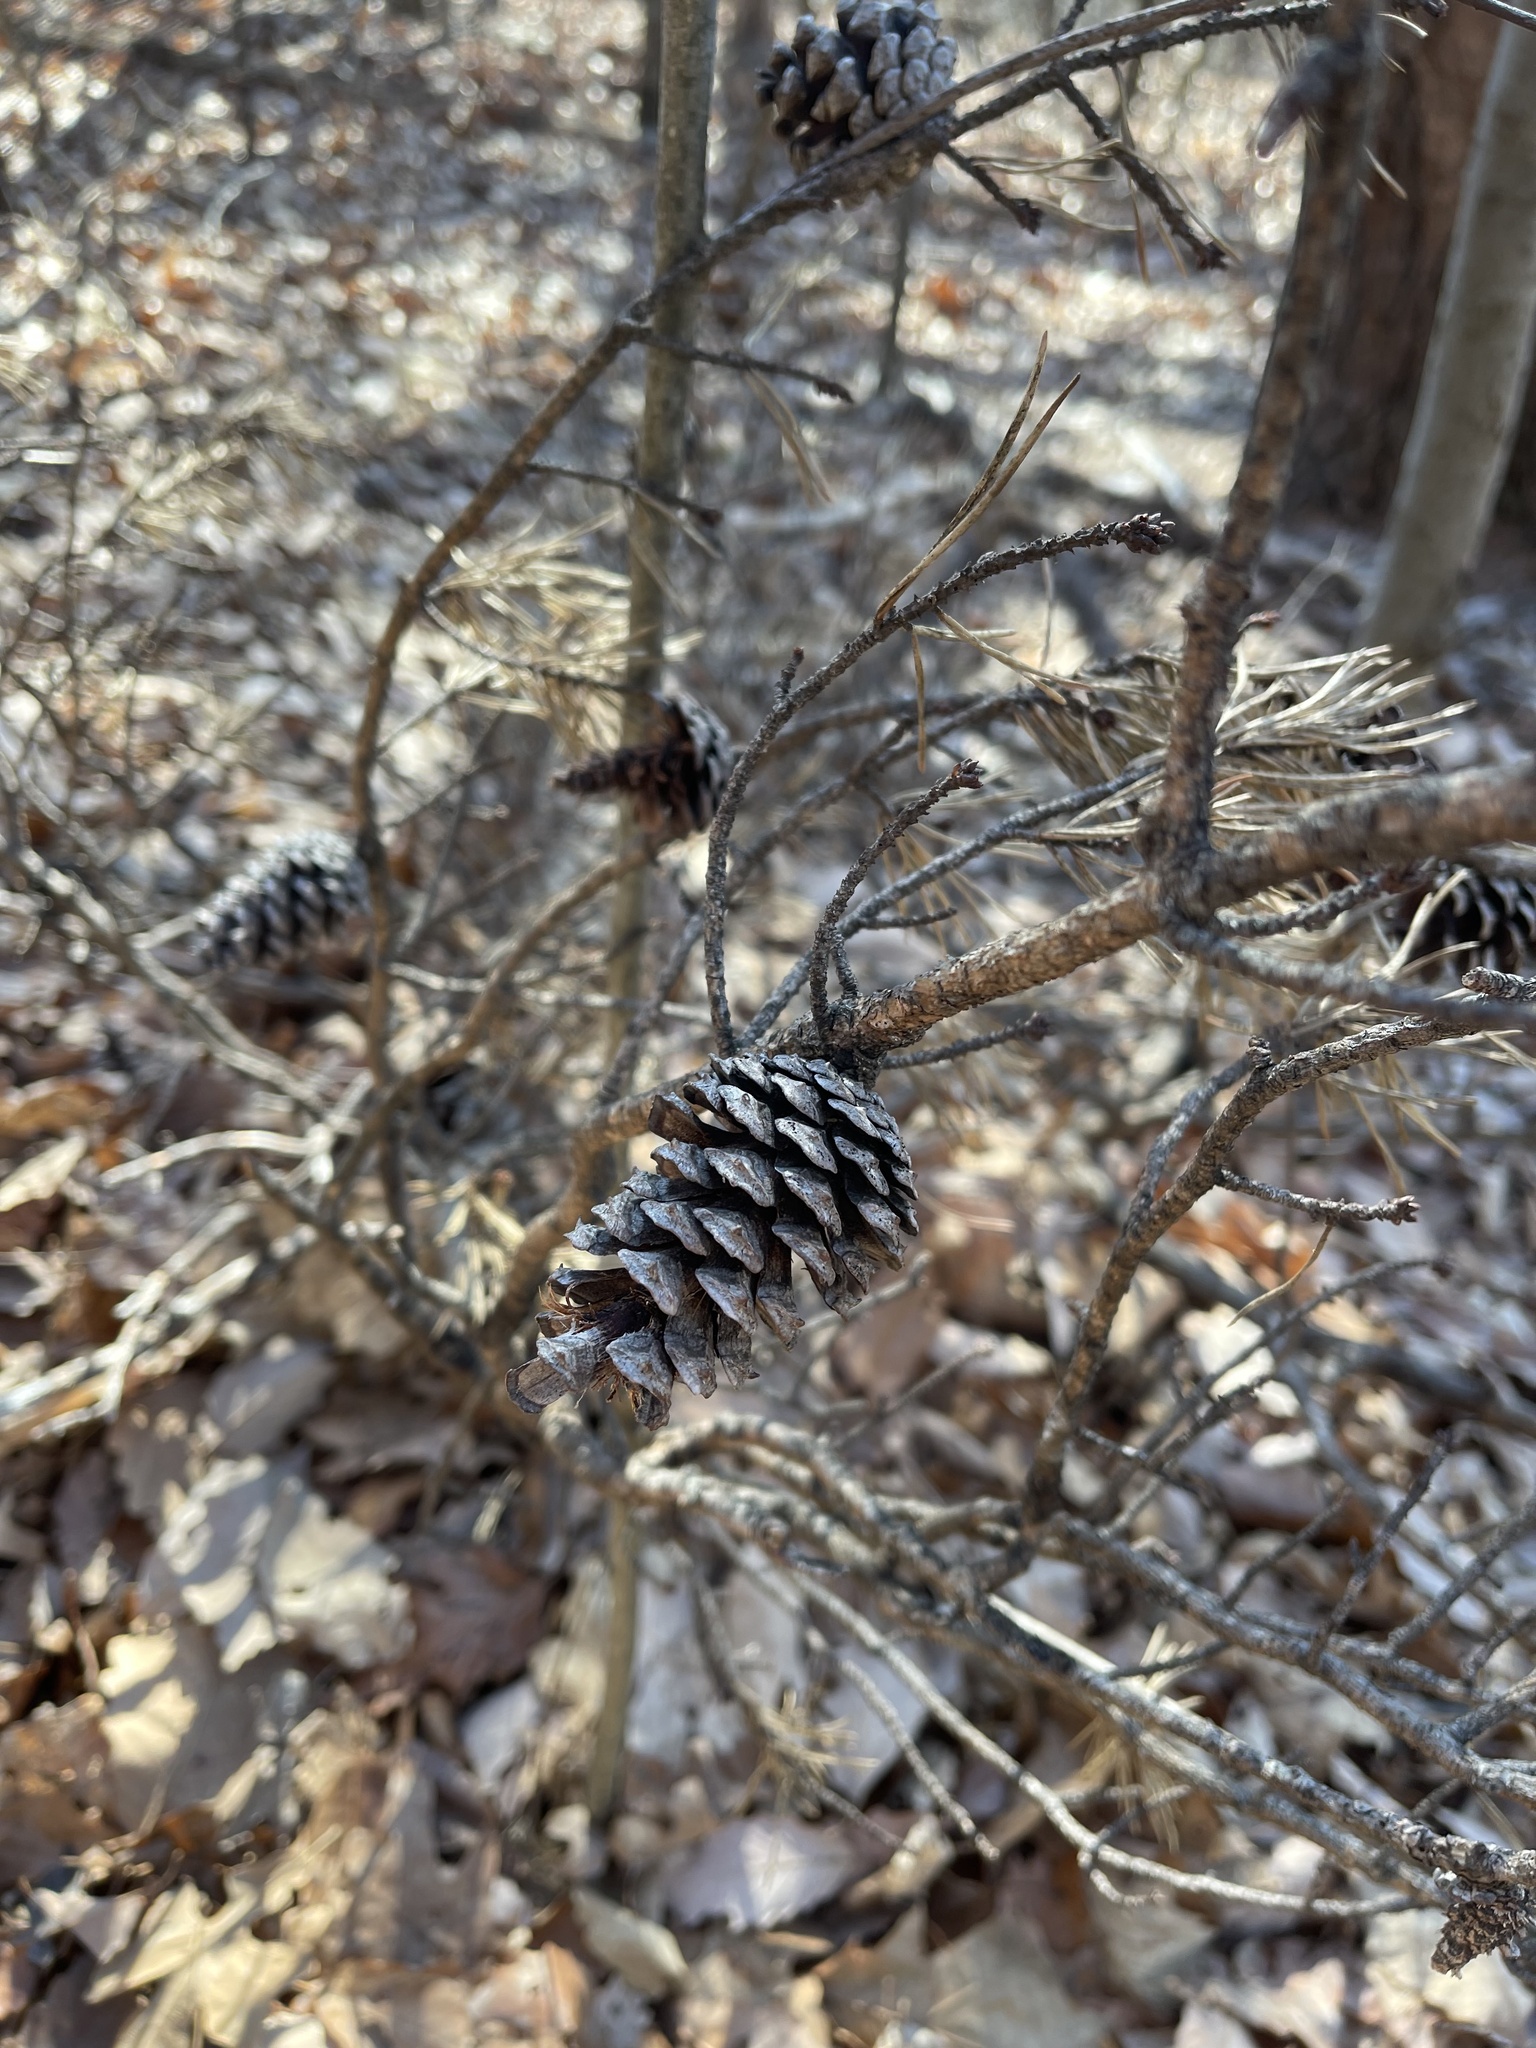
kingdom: Plantae
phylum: Tracheophyta
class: Pinopsida
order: Pinales
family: Pinaceae
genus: Pinus
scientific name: Pinus virginiana
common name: Scrub pine
